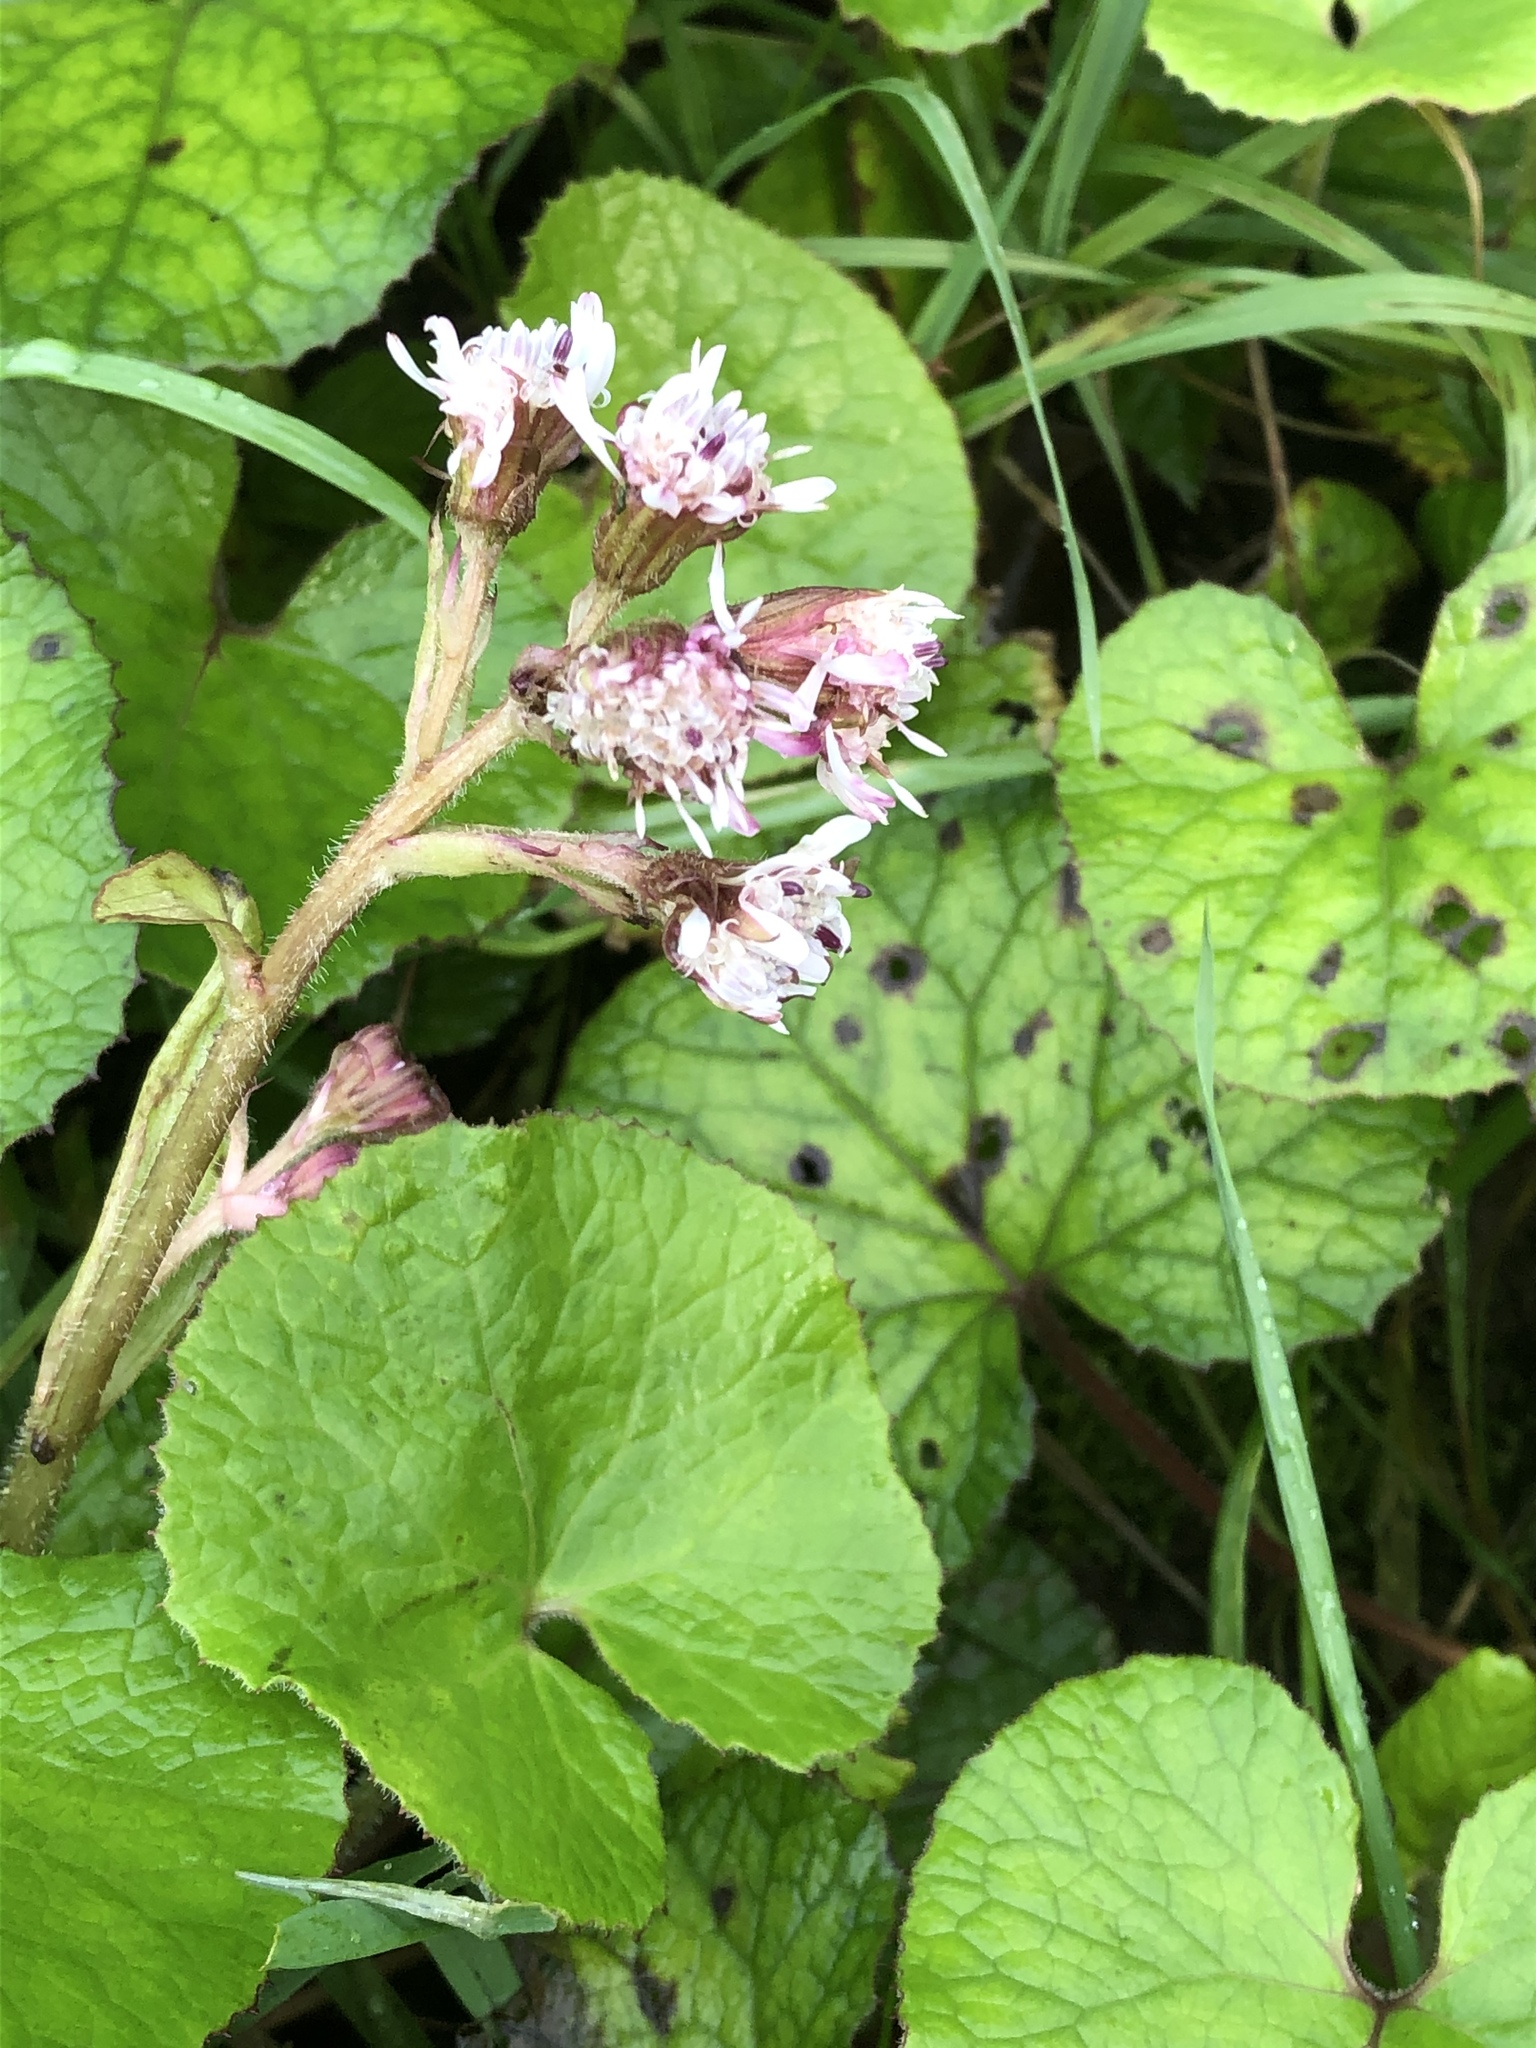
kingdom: Plantae
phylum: Tracheophyta
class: Magnoliopsida
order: Asterales
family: Asteraceae
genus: Petasites
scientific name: Petasites pyrenaicus
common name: Winter heliotrope
